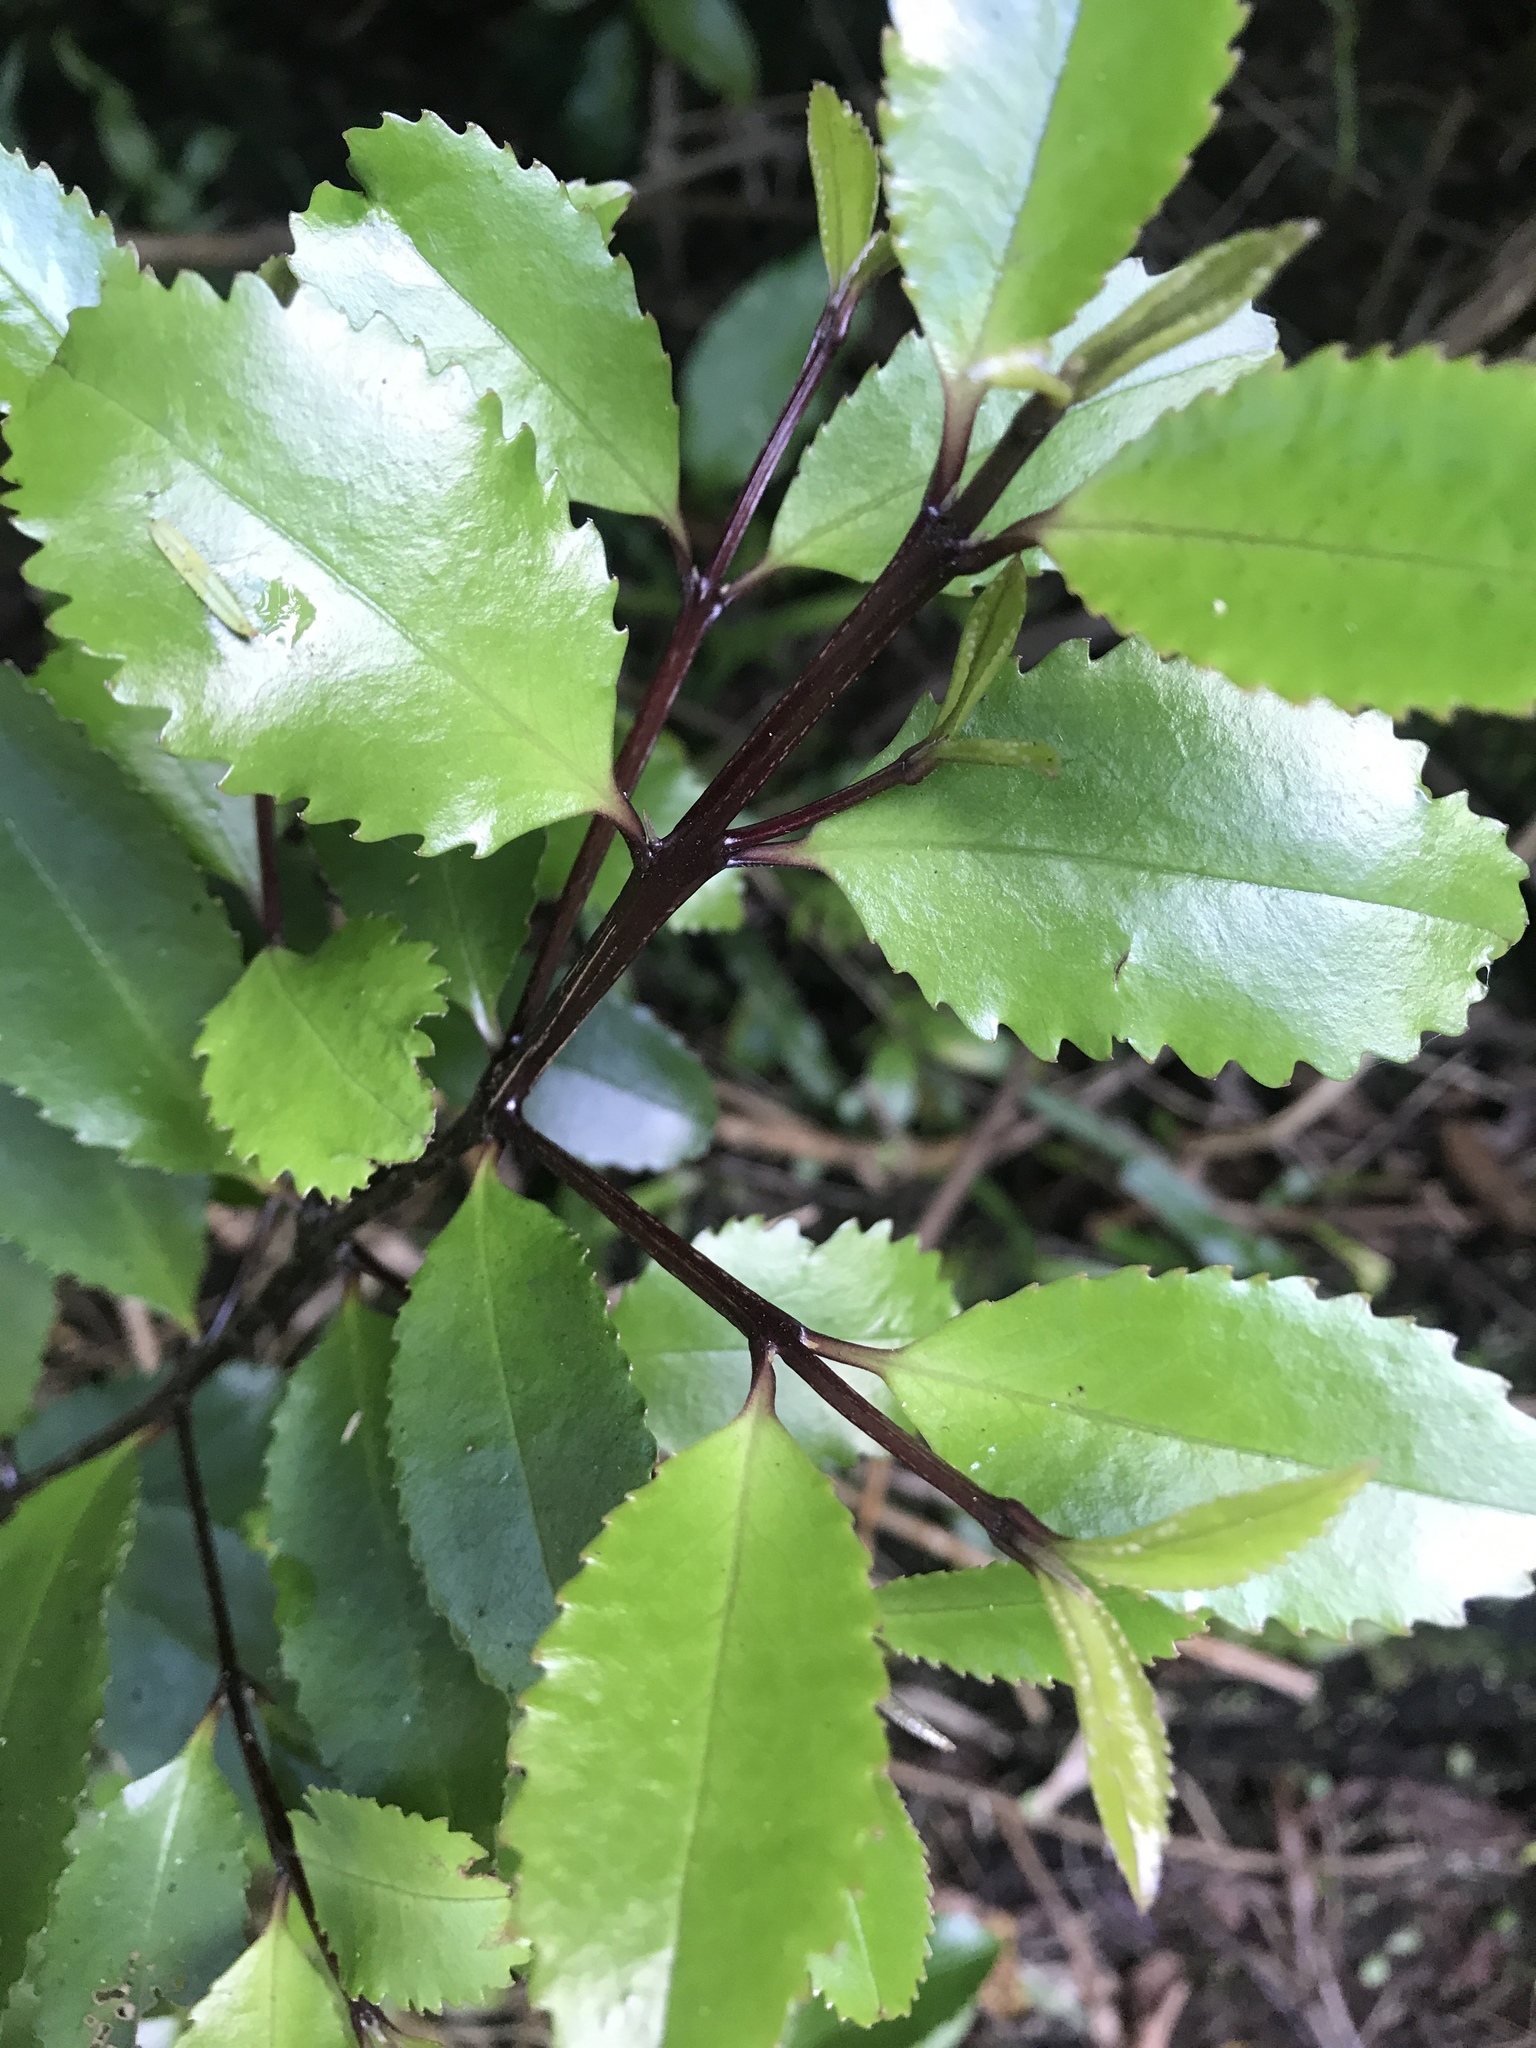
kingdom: Plantae
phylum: Tracheophyta
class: Magnoliopsida
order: Laurales
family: Atherospermataceae
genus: Laurelia
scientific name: Laurelia novae-zelandiae
